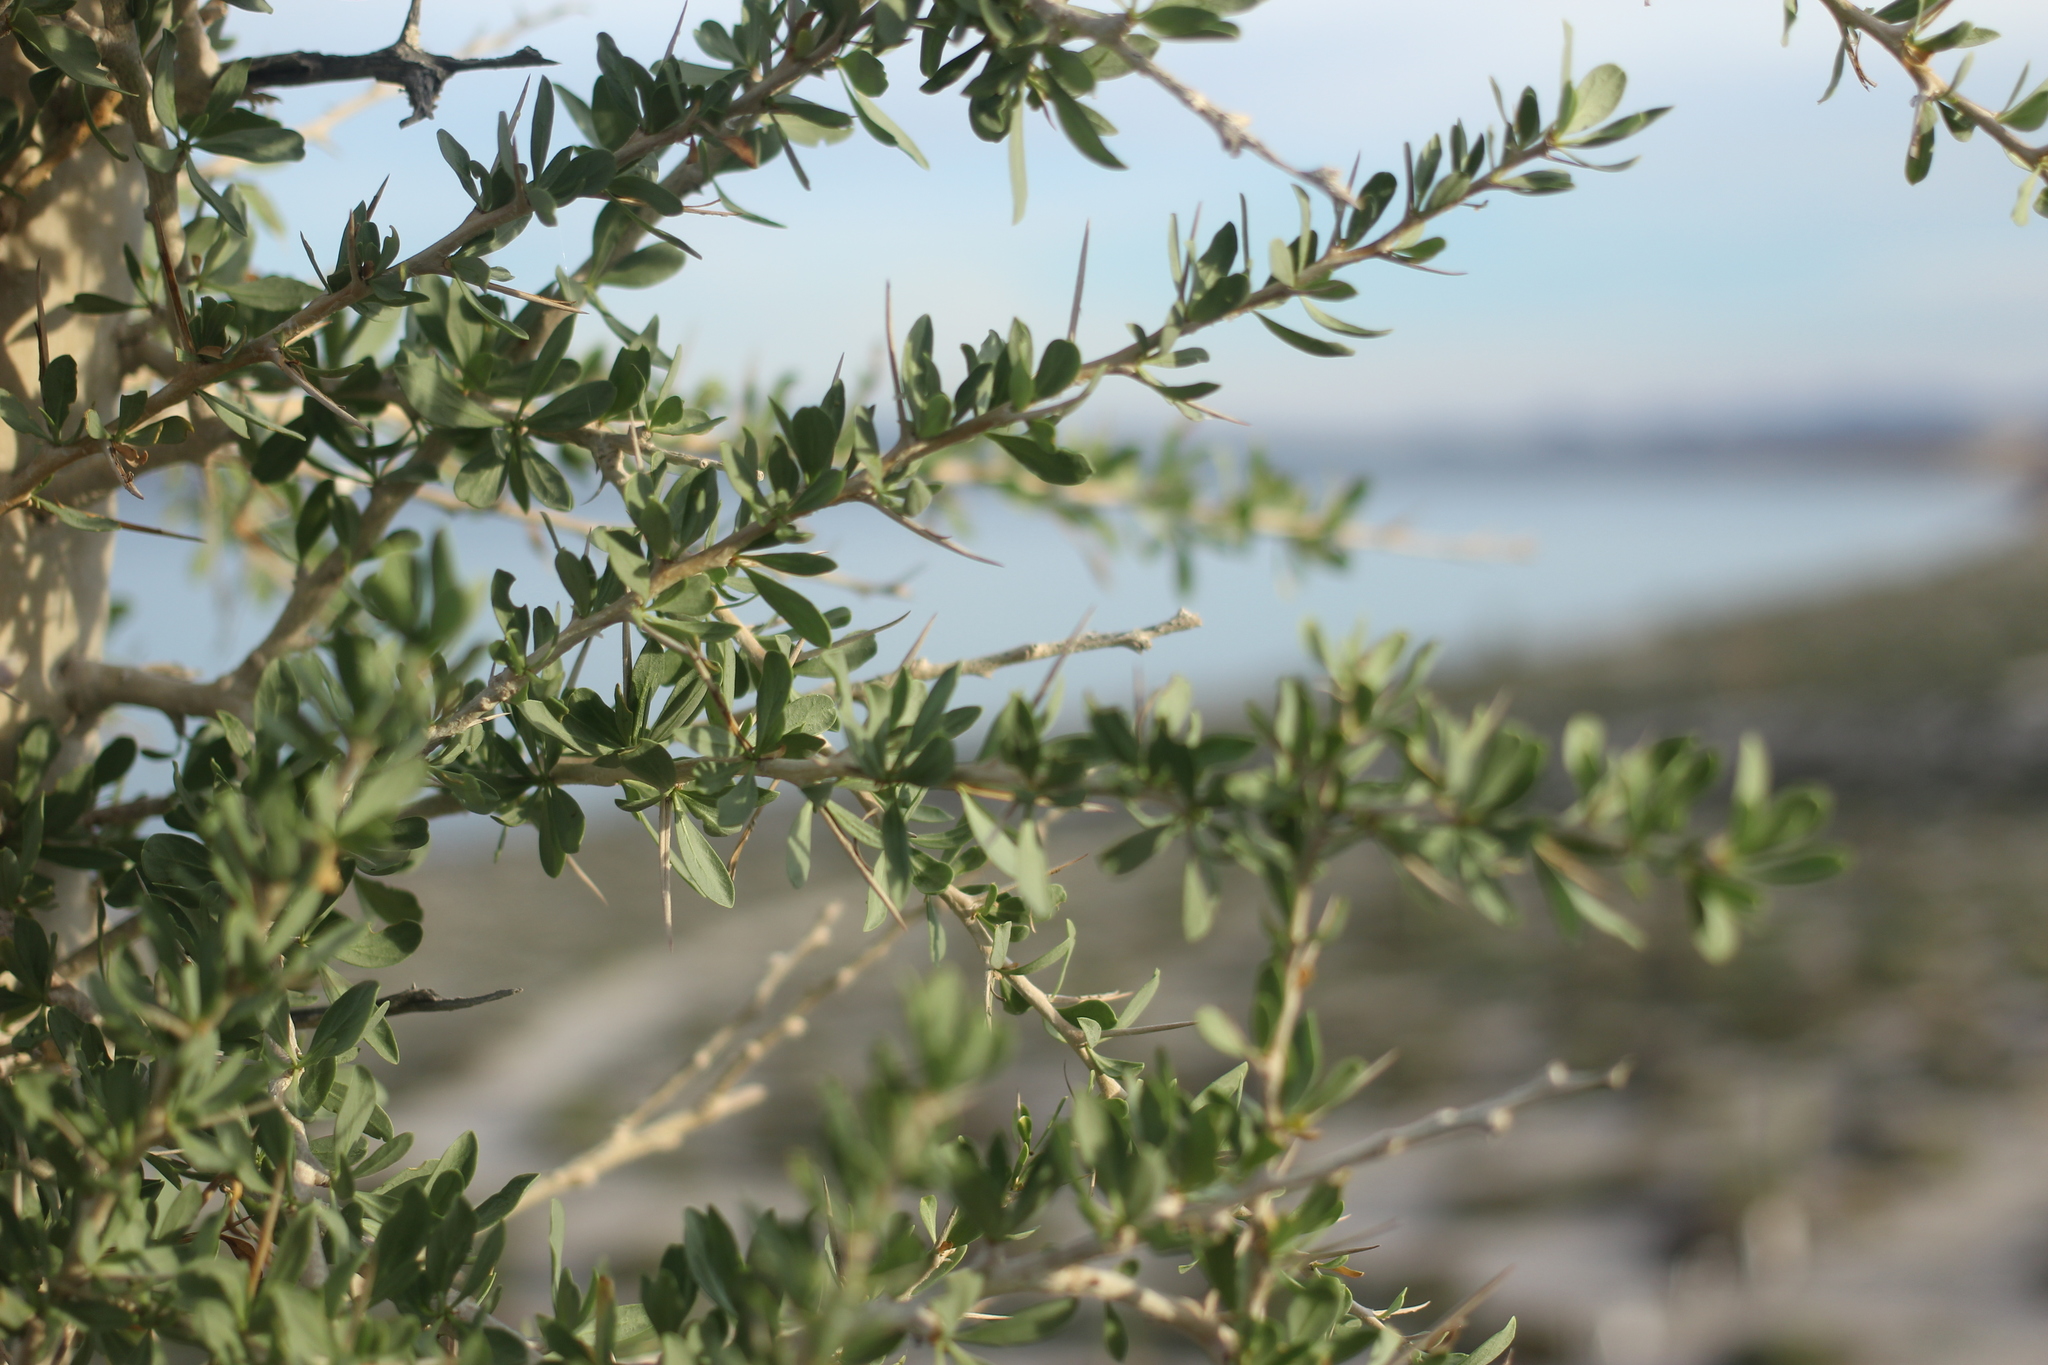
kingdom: Plantae
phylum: Tracheophyta
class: Magnoliopsida
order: Ericales
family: Fouquieriaceae
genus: Fouquieria
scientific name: Fouquieria columnaris
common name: Boojumtree
